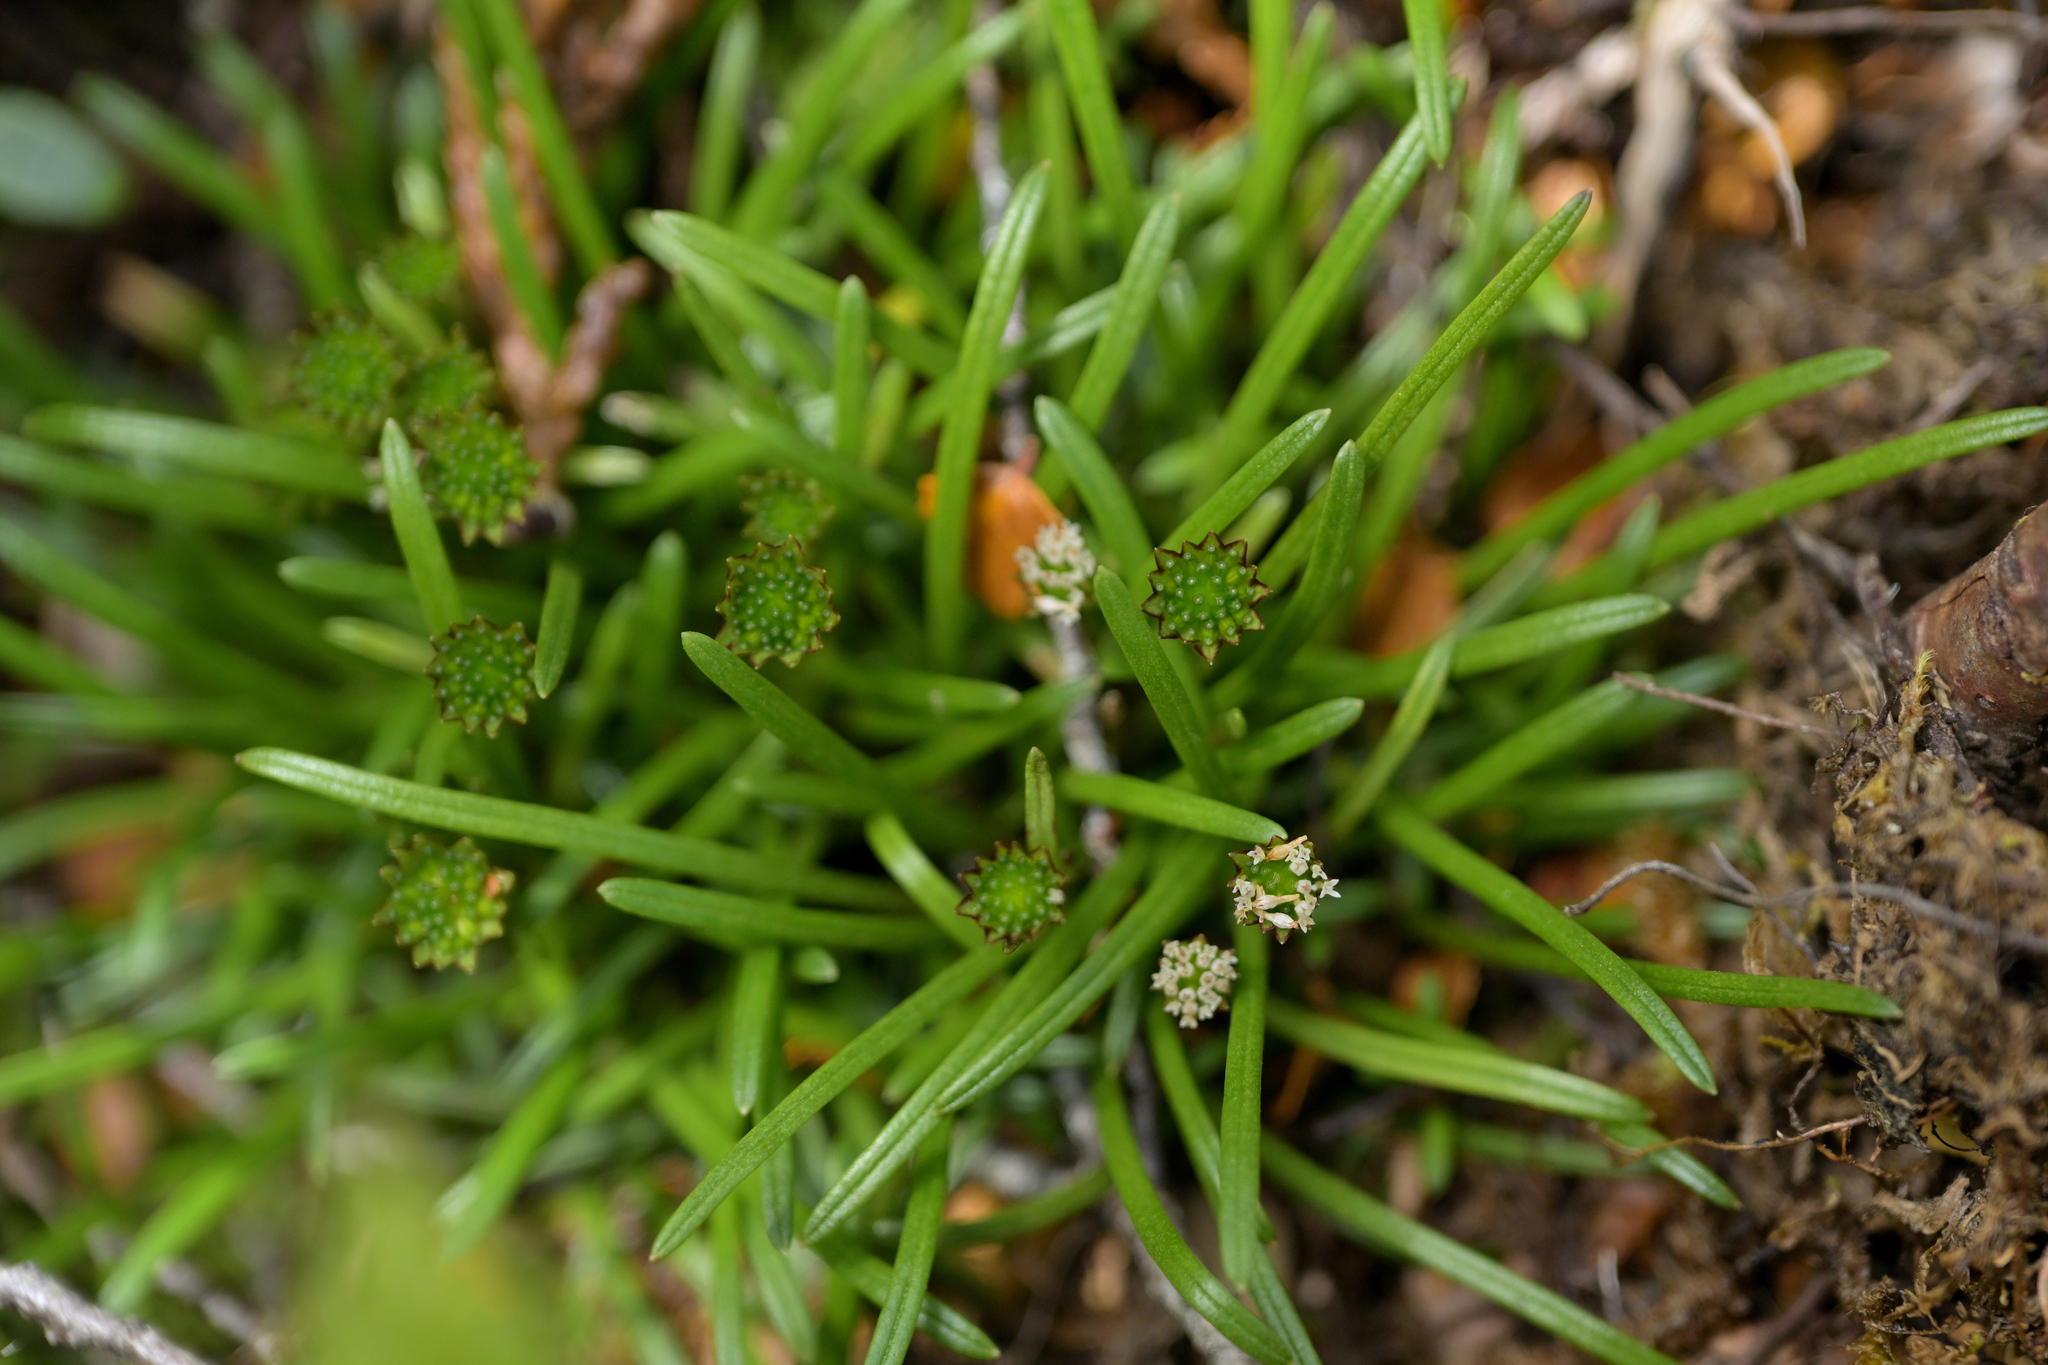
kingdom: Plantae
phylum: Tracheophyta
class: Magnoliopsida
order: Asterales
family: Asteraceae
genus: Abrotanella
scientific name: Abrotanella linearis
